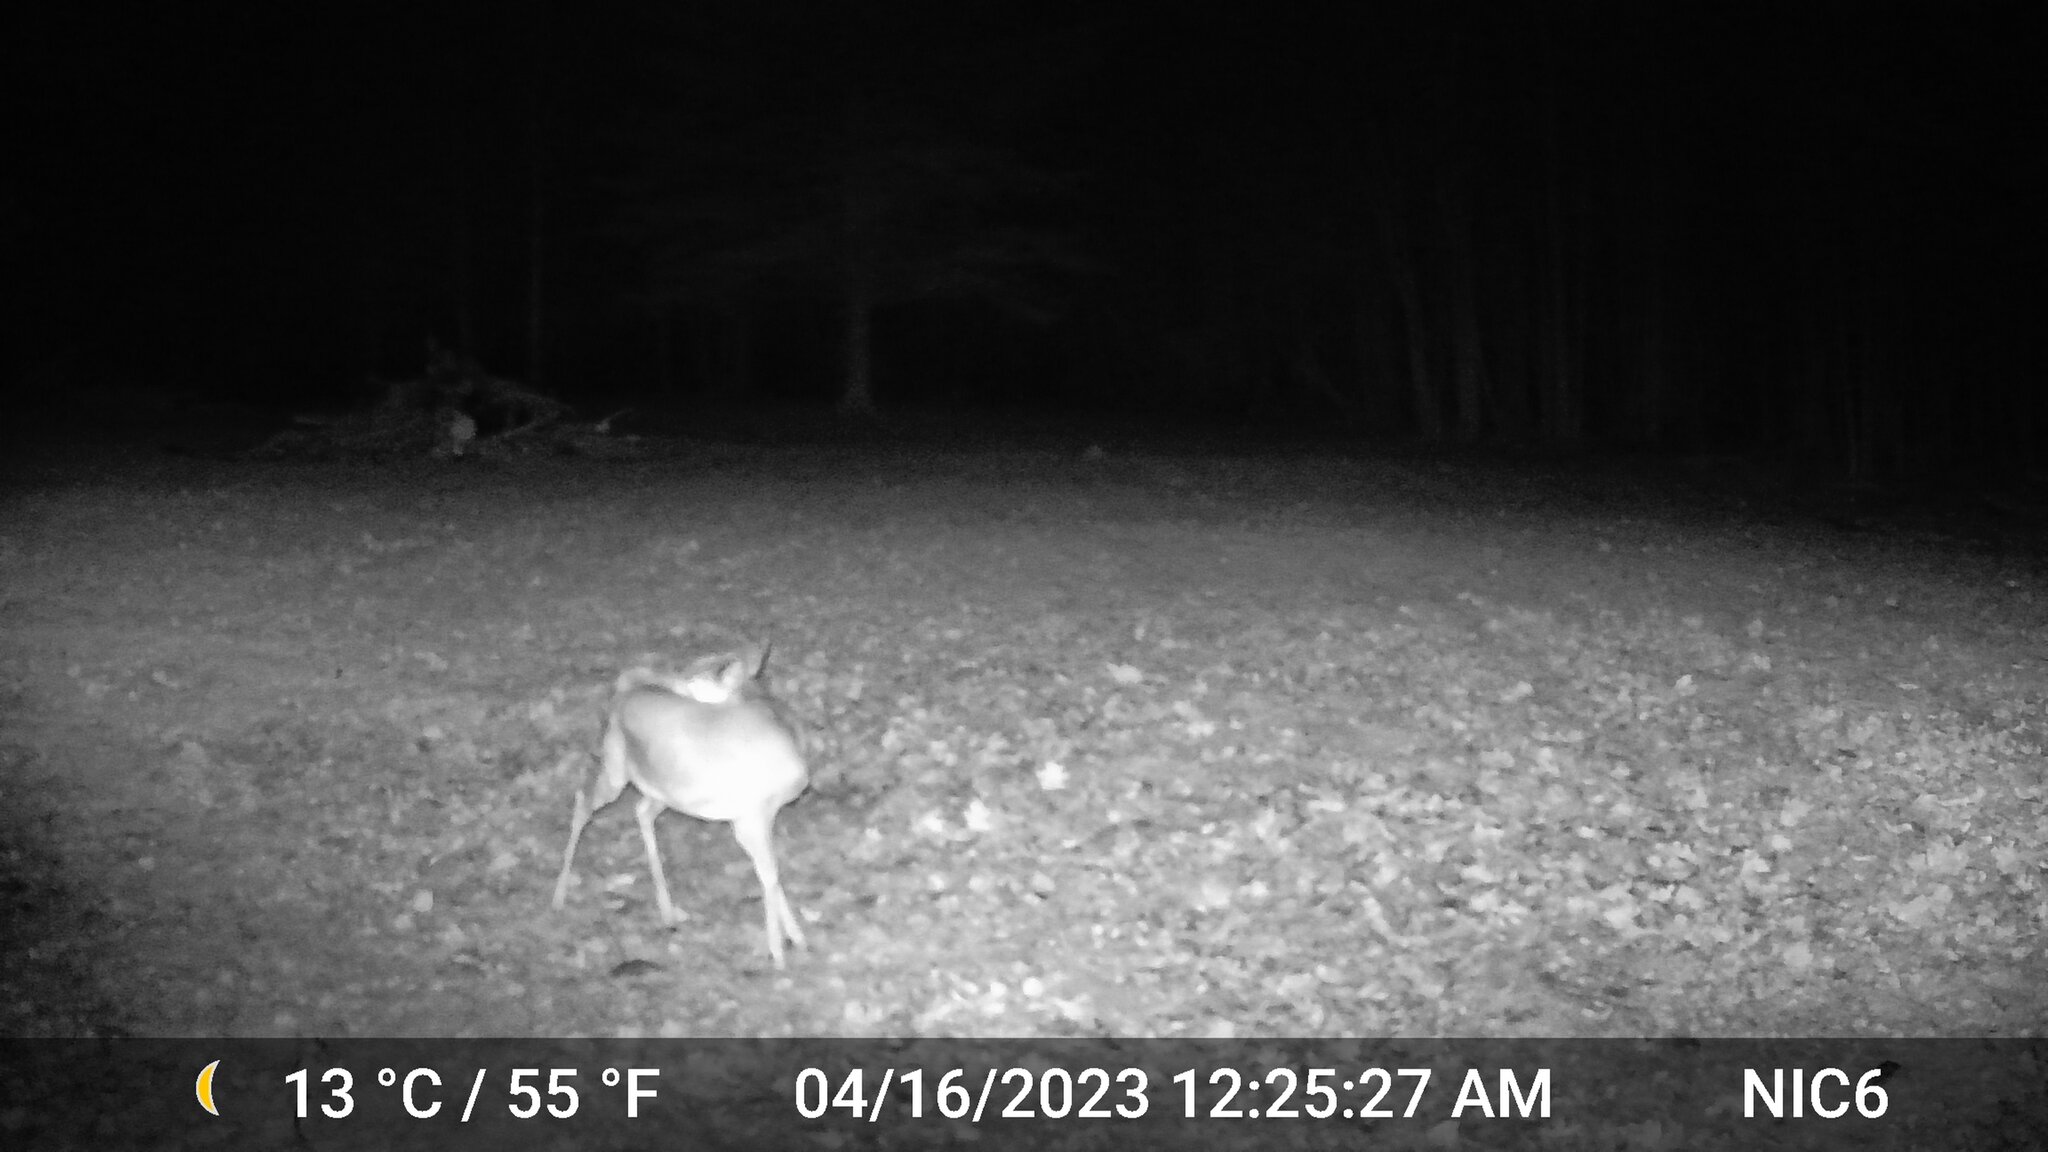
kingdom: Animalia
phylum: Chordata
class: Mammalia
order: Artiodactyla
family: Cervidae
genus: Odocoileus
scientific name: Odocoileus virginianus
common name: White-tailed deer
